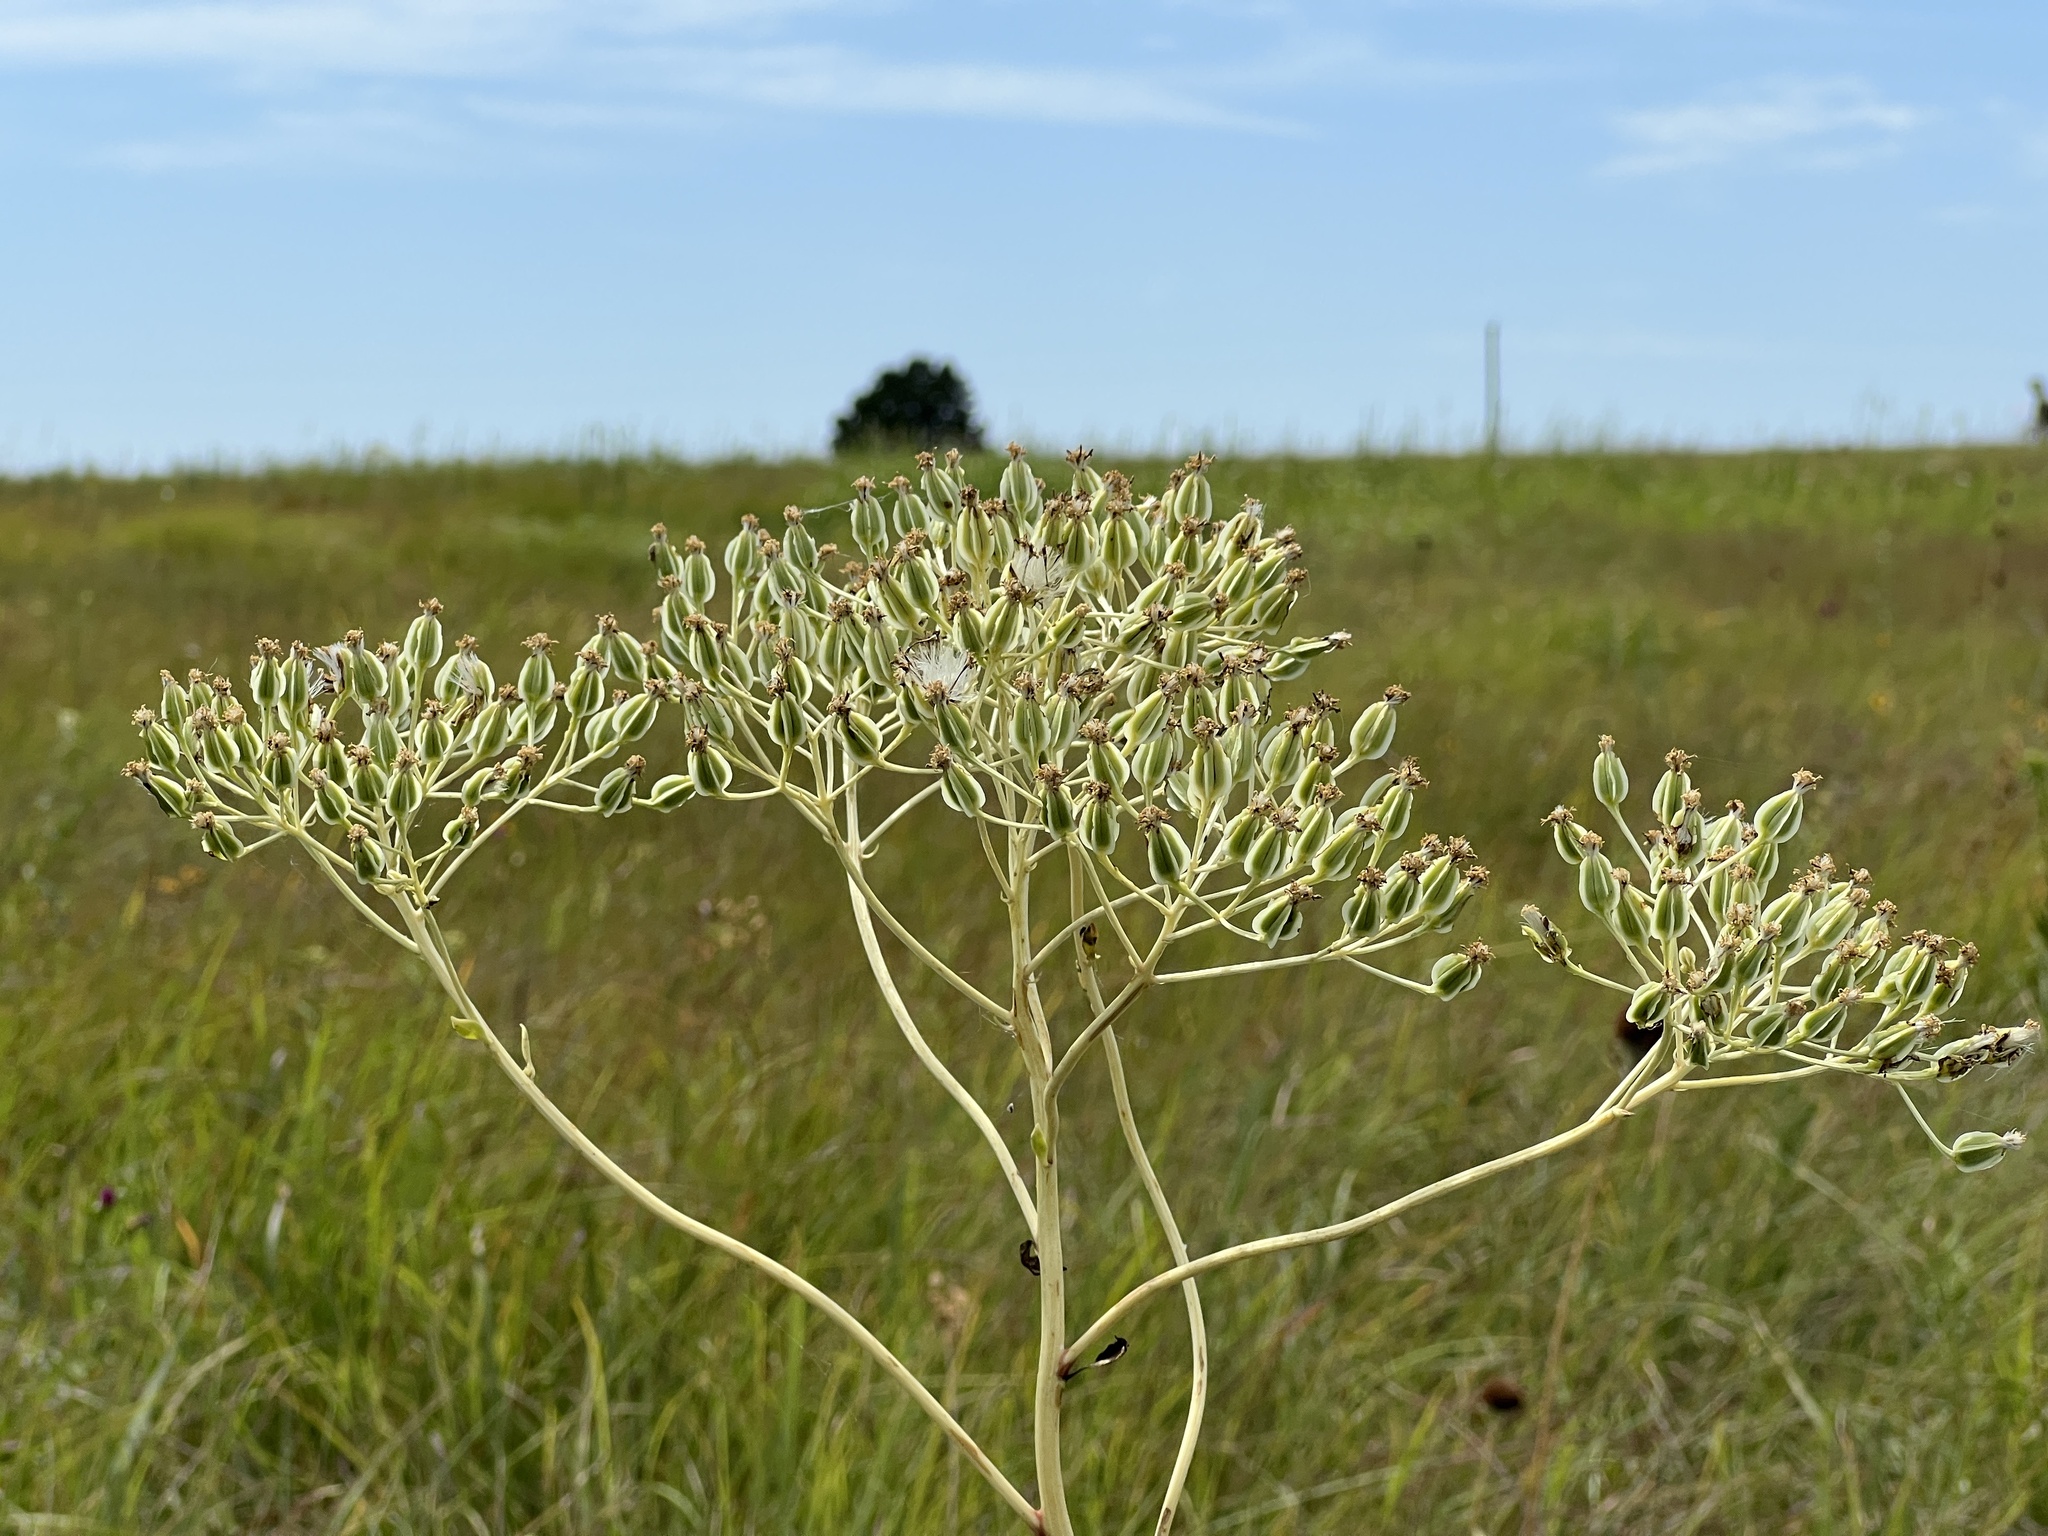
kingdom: Plantae
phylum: Tracheophyta
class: Magnoliopsida
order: Asterales
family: Asteraceae
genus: Arnoglossum
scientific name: Arnoglossum plantagineum
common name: Groove-stemmed indian-plantain
